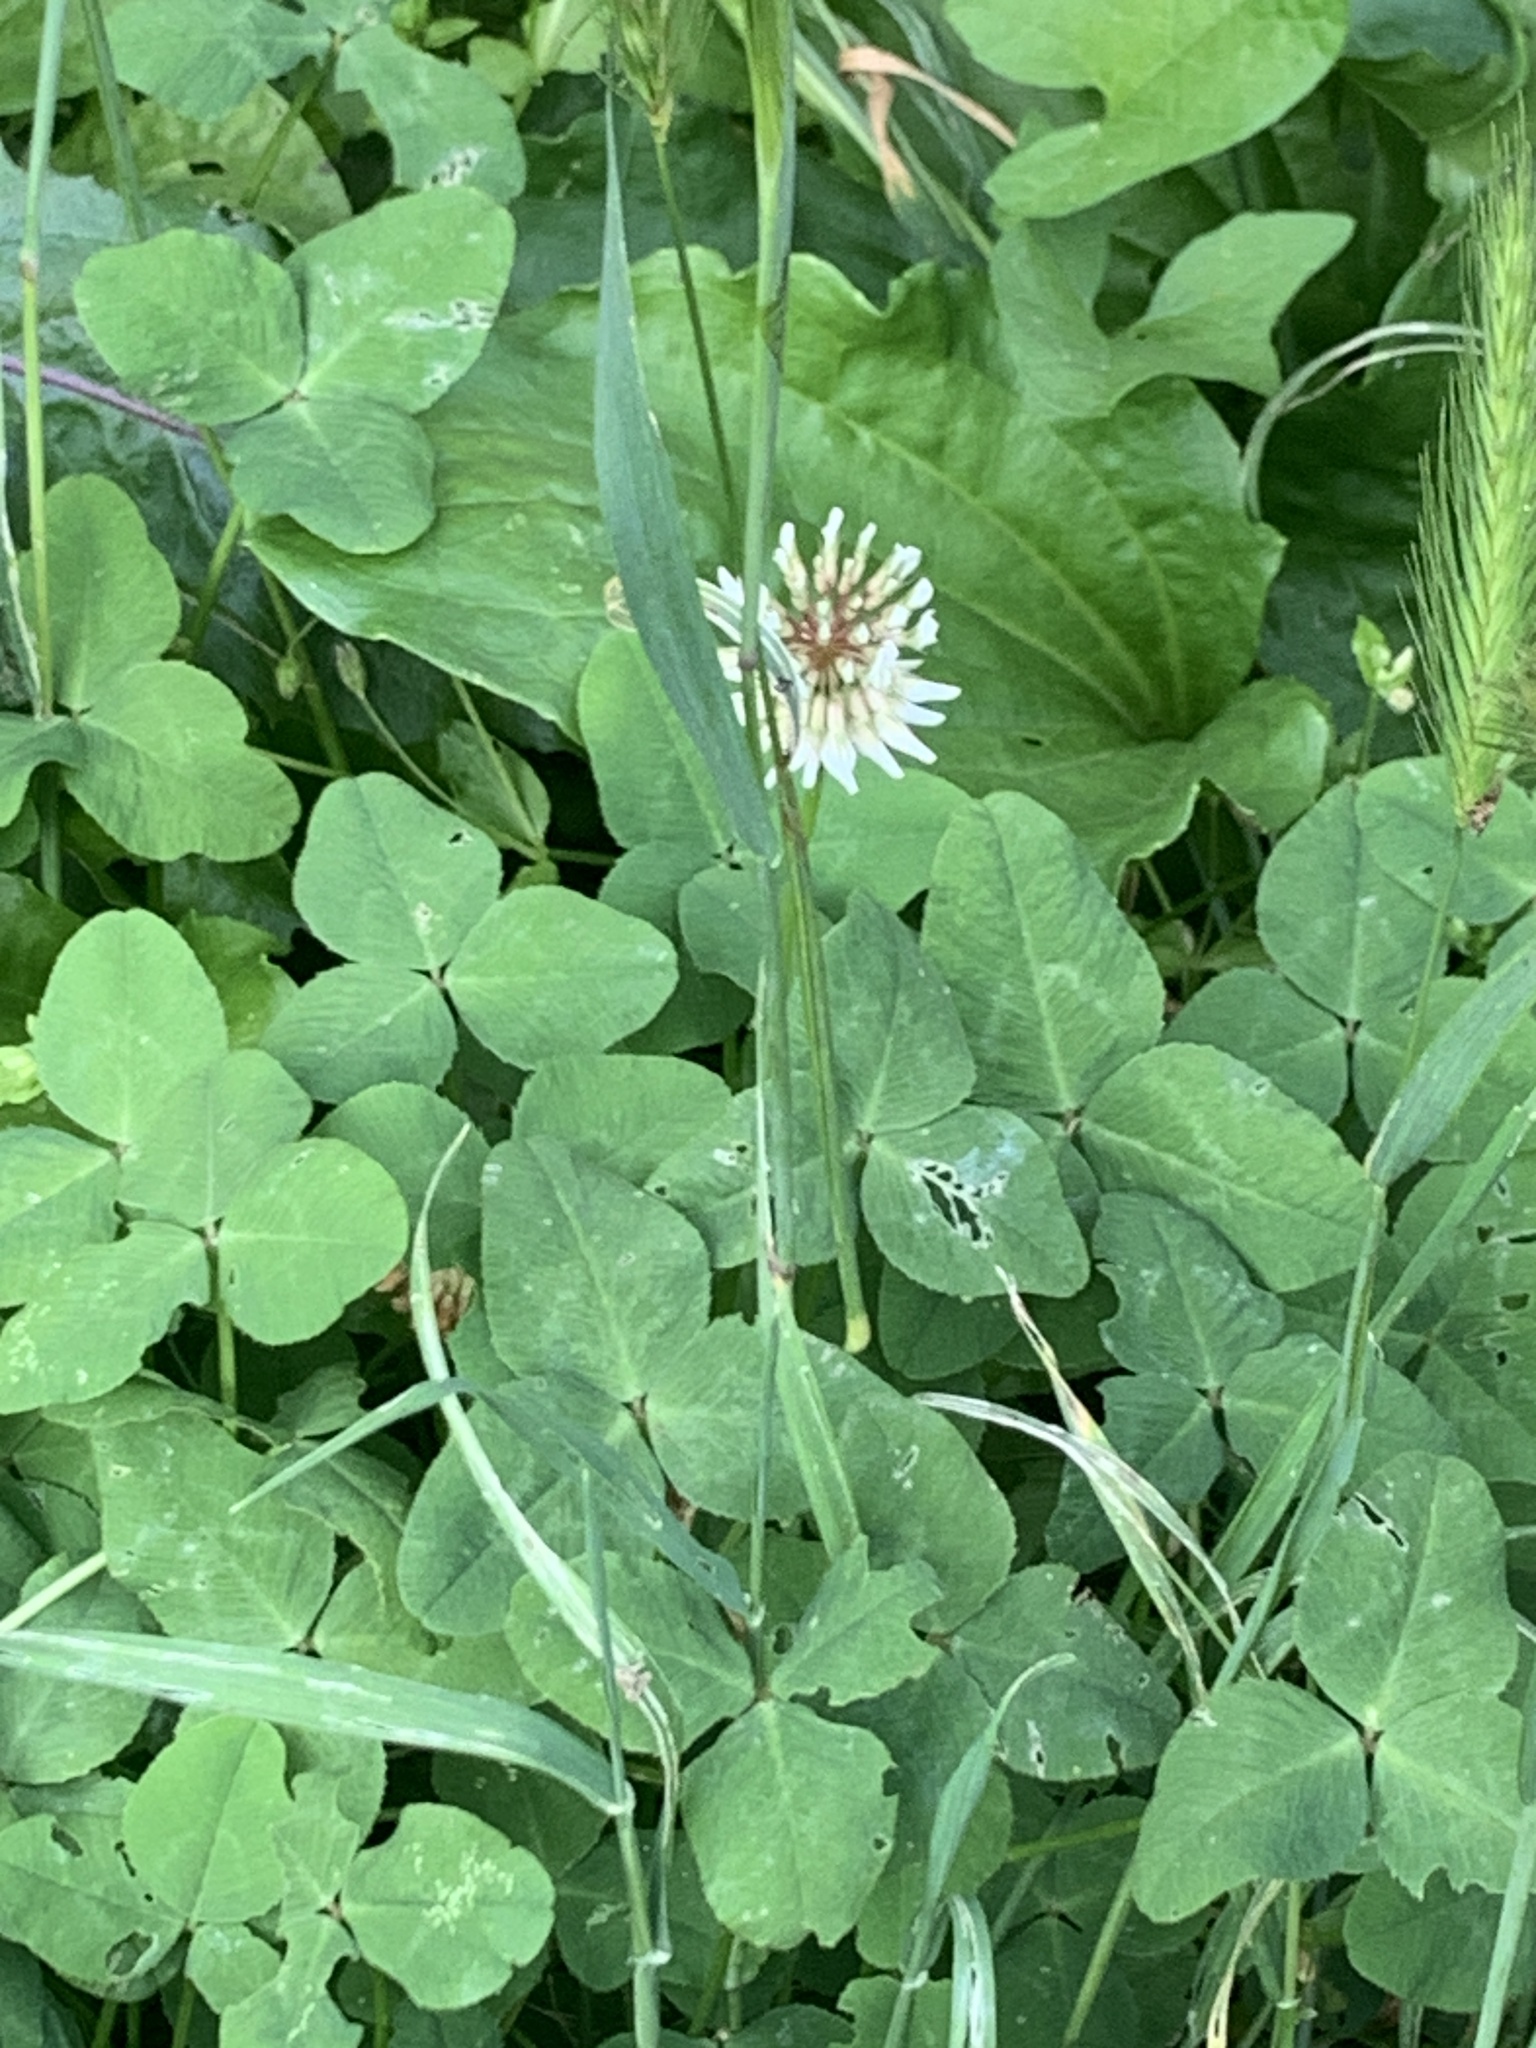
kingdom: Plantae
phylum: Tracheophyta
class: Magnoliopsida
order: Fabales
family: Fabaceae
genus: Trifolium
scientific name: Trifolium repens
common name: White clover
